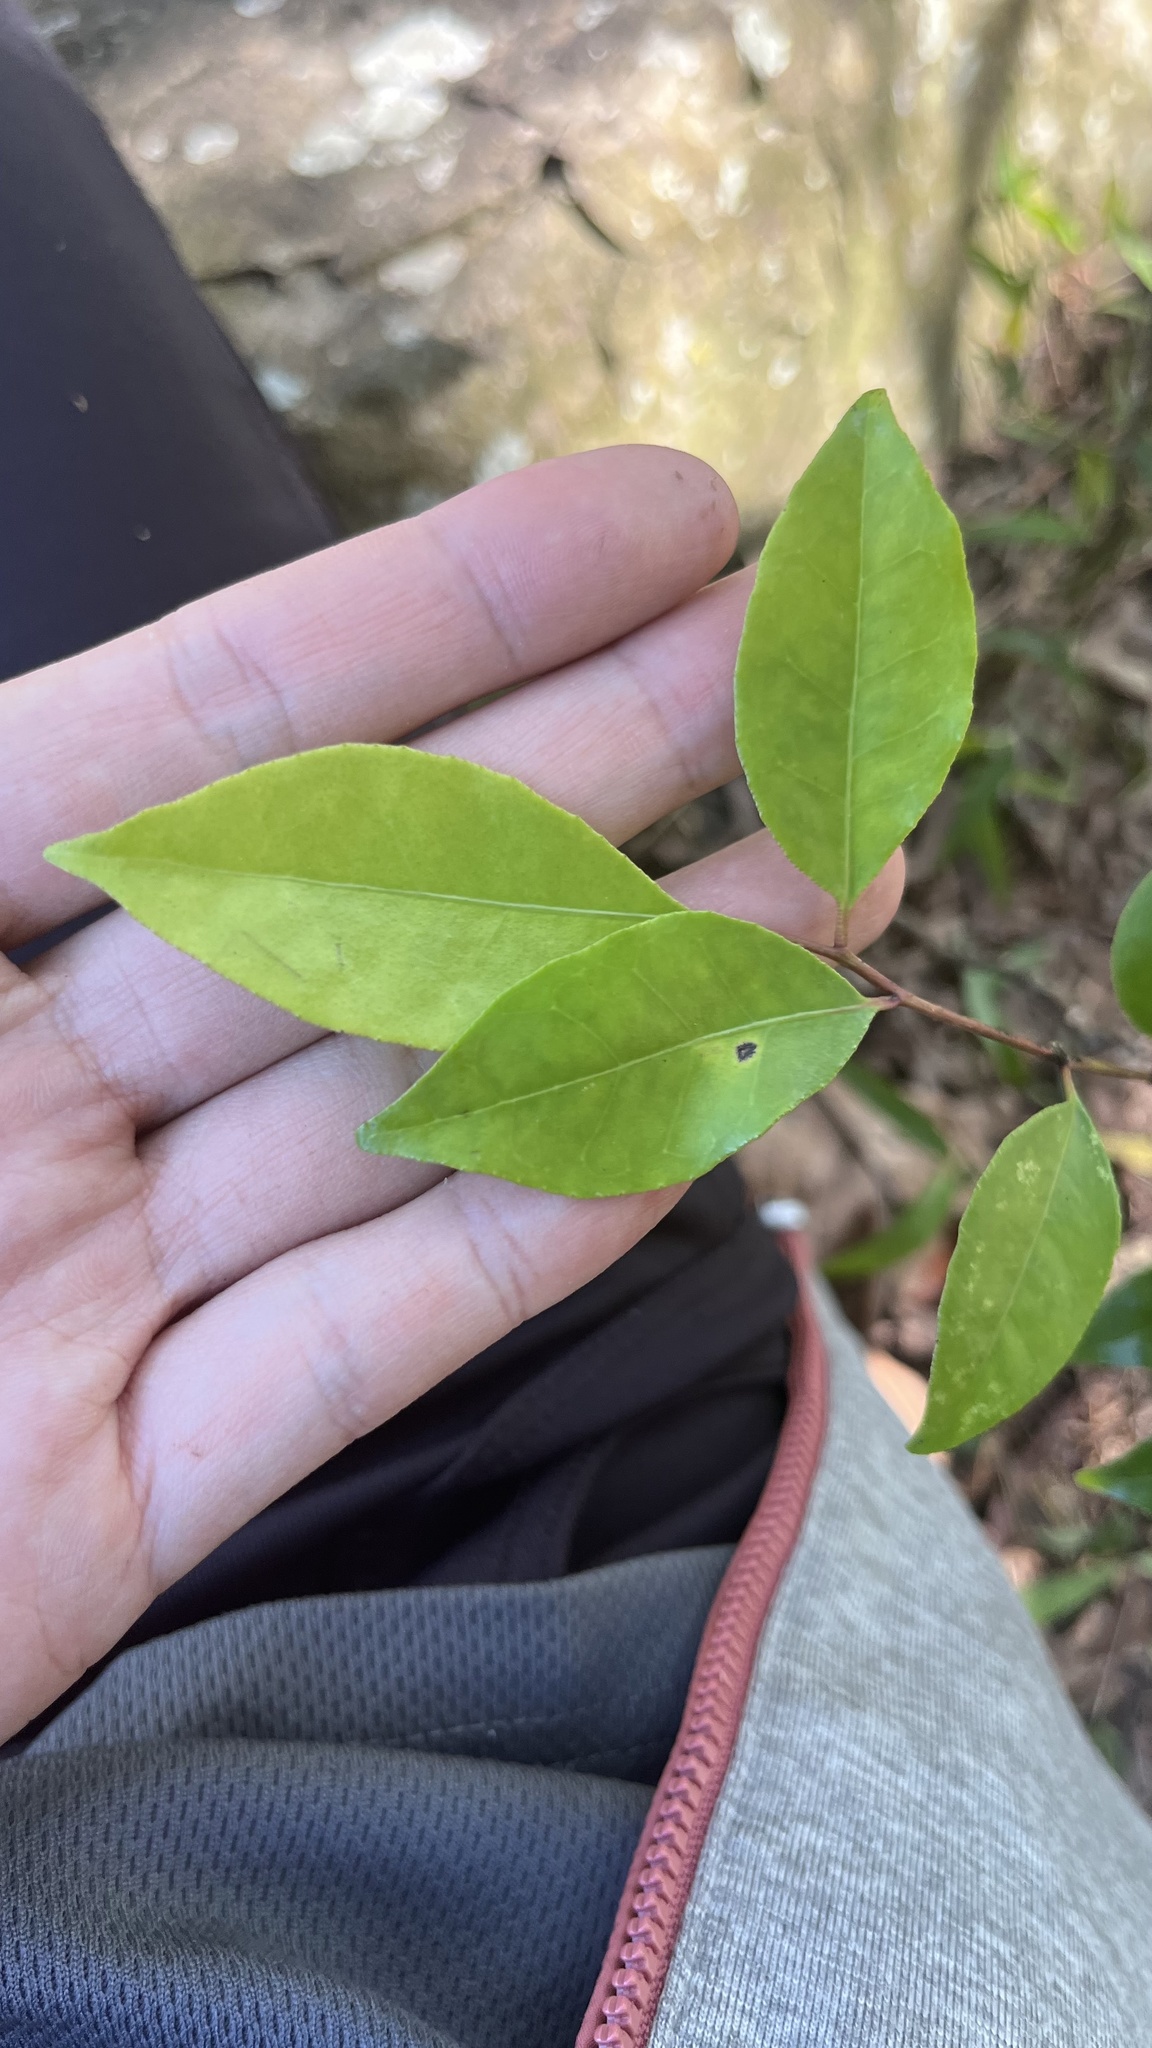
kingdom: Plantae
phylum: Tracheophyta
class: Magnoliopsida
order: Sapindales
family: Rutaceae
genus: Murraya
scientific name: Murraya euchrestifolia
